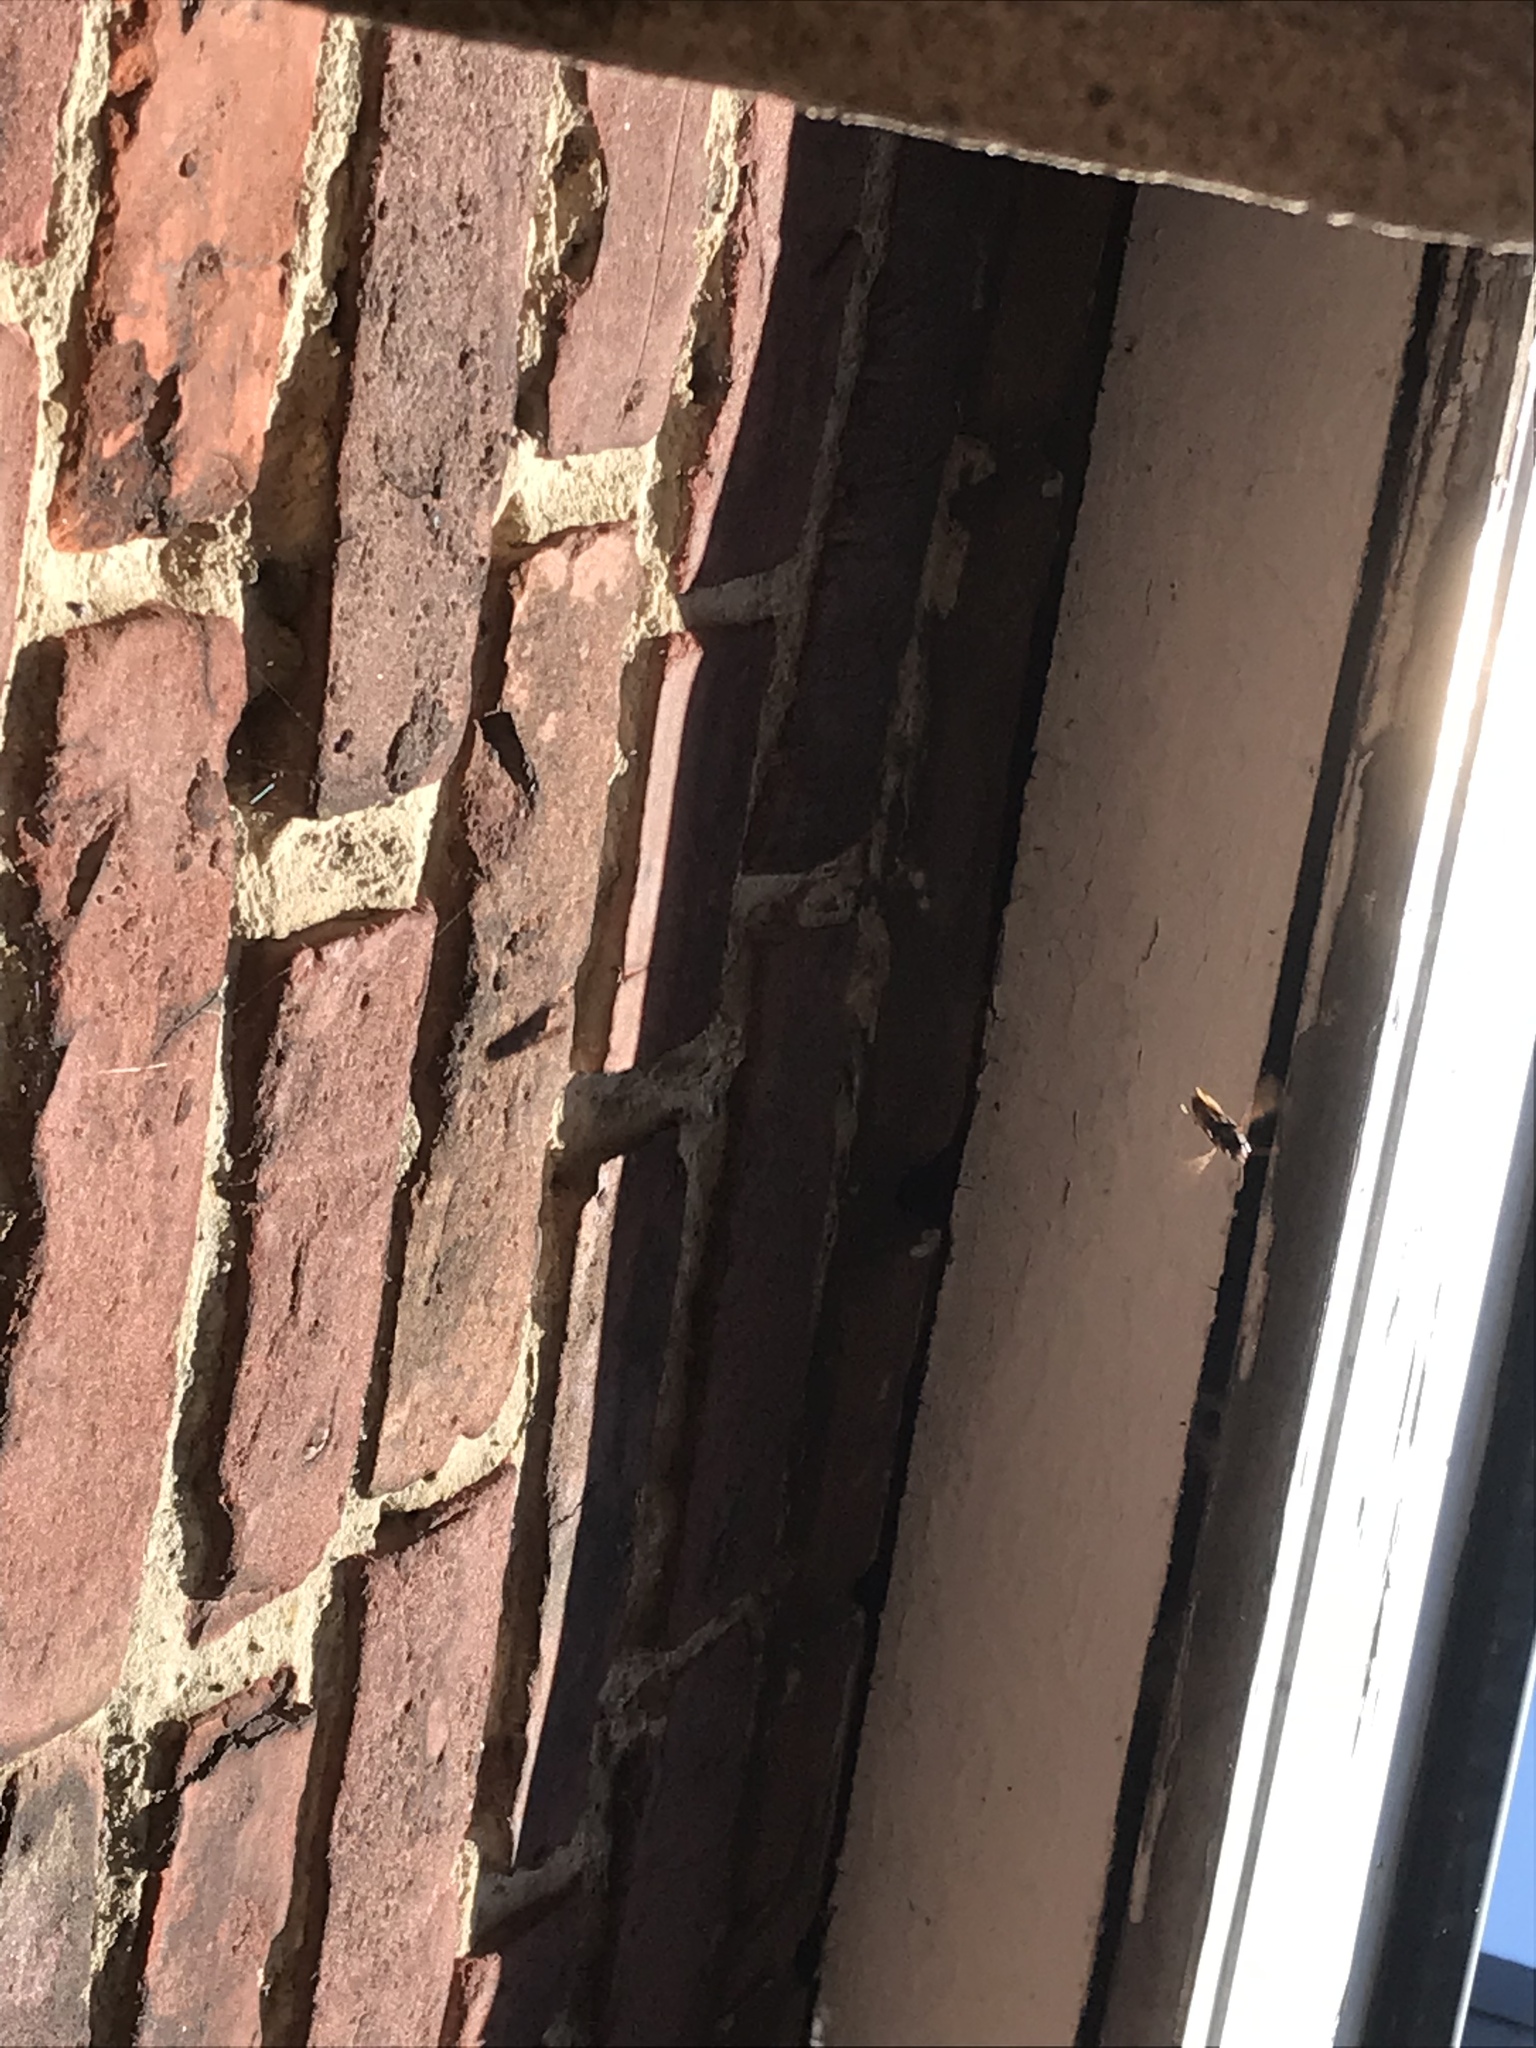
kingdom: Animalia
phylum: Arthropoda
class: Insecta
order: Hymenoptera
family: Vespidae
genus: Vespa
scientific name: Vespa velutina
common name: Asian hornet
